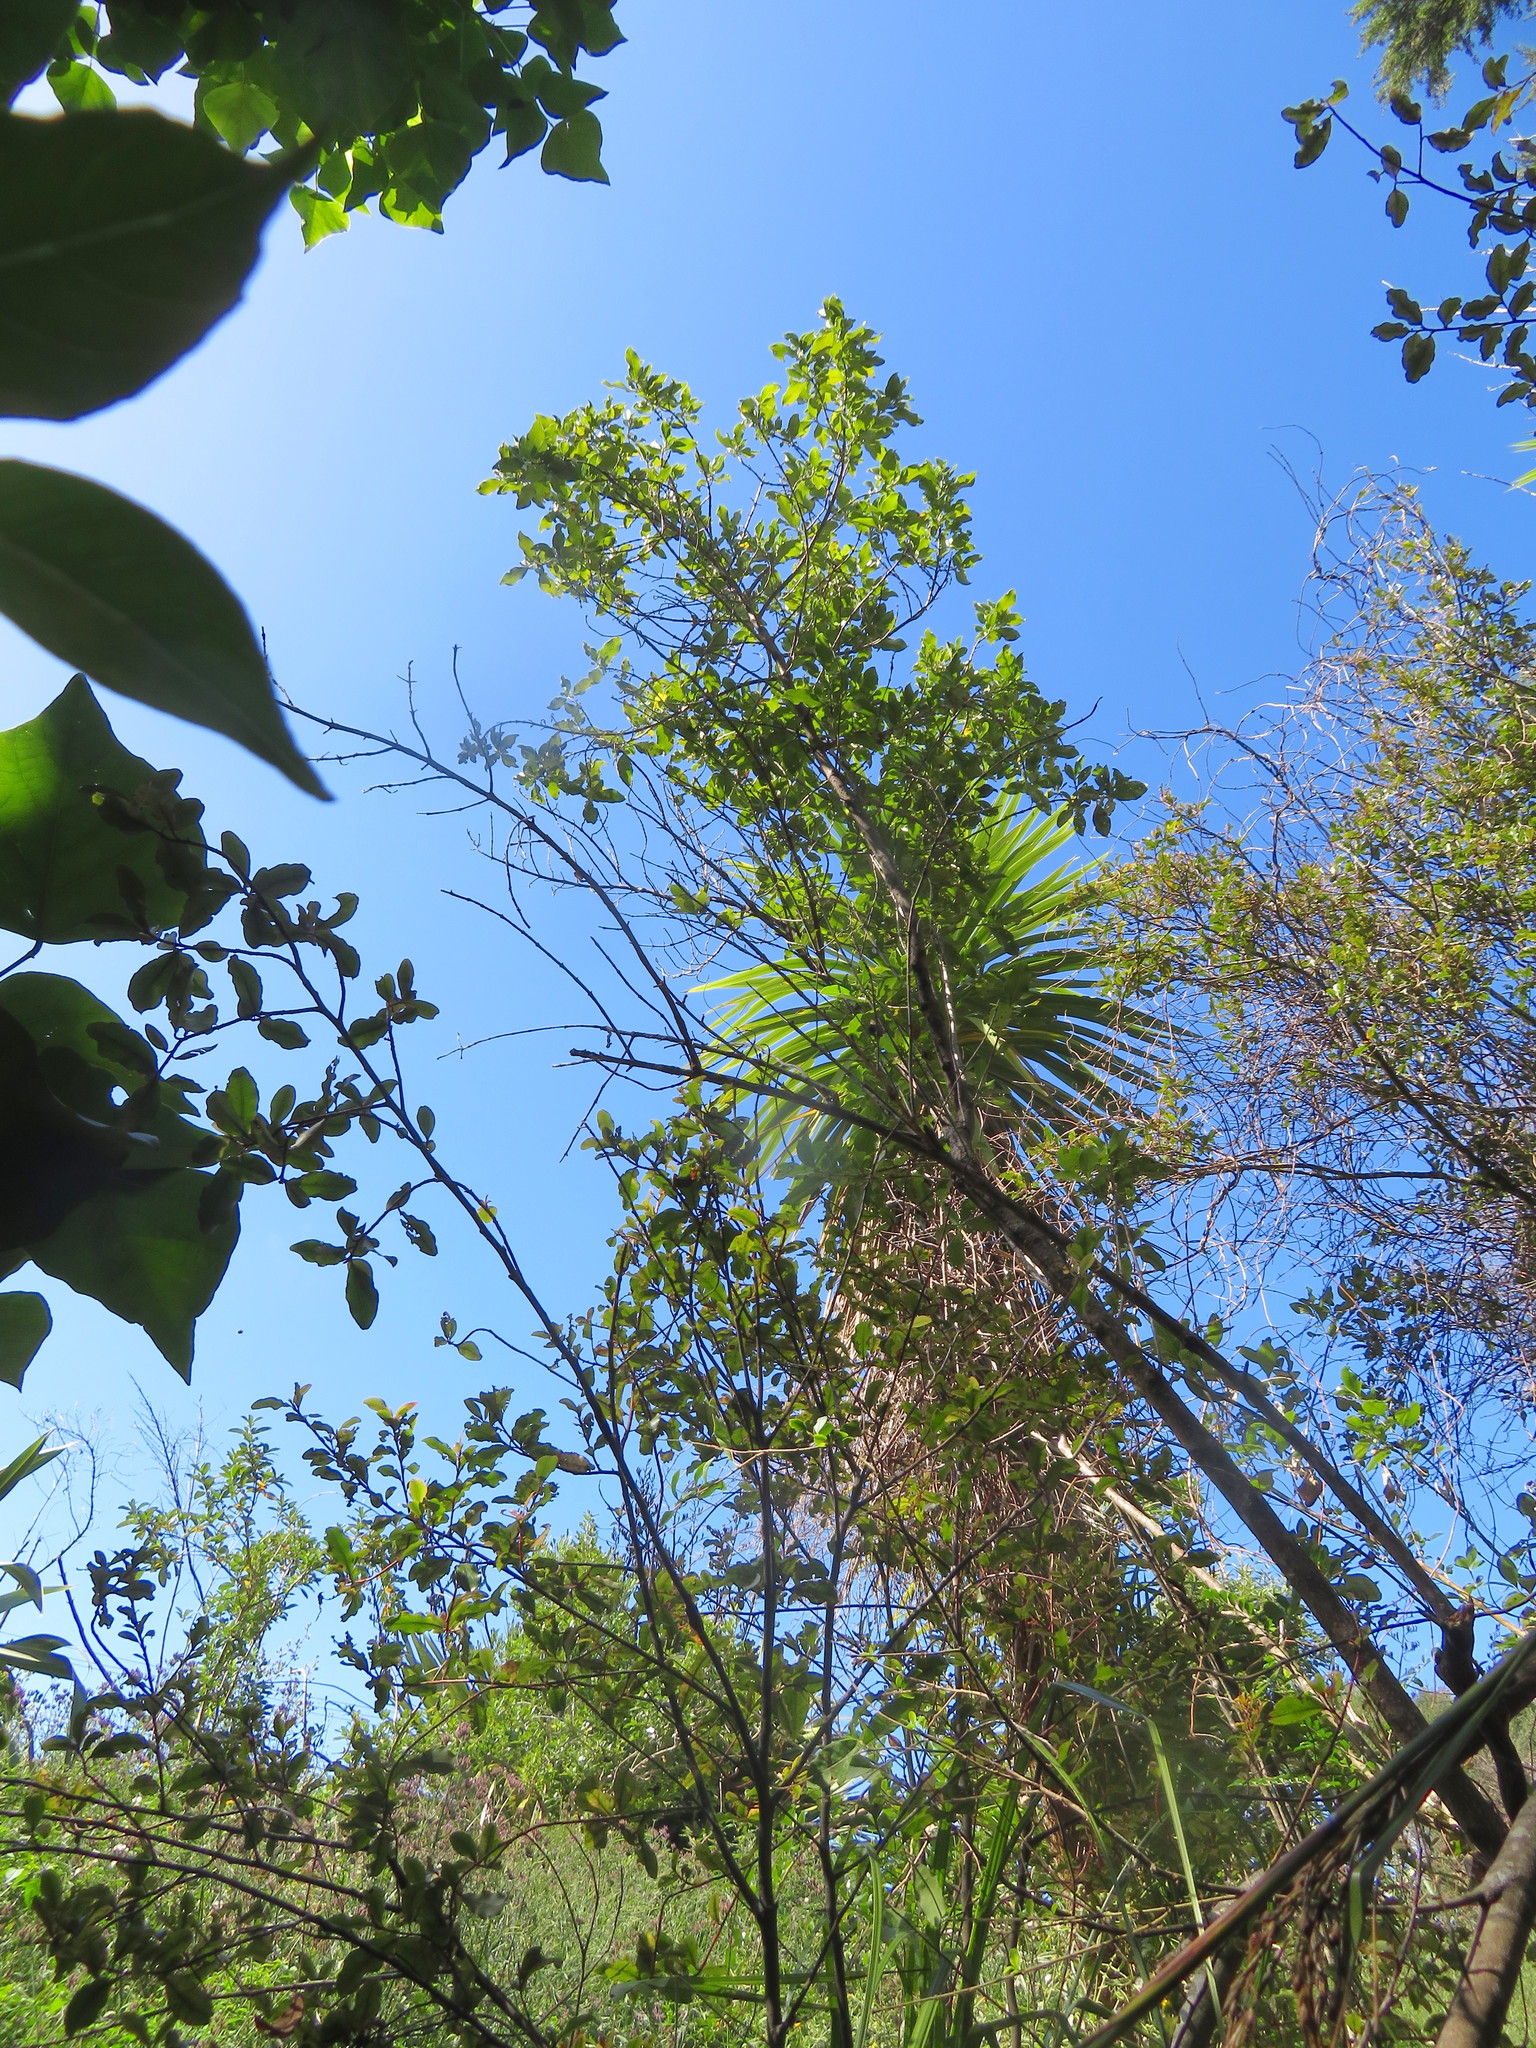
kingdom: Plantae
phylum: Tracheophyta
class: Magnoliopsida
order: Gentianales
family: Rubiaceae
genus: Coprosma
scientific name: Coprosma robusta
